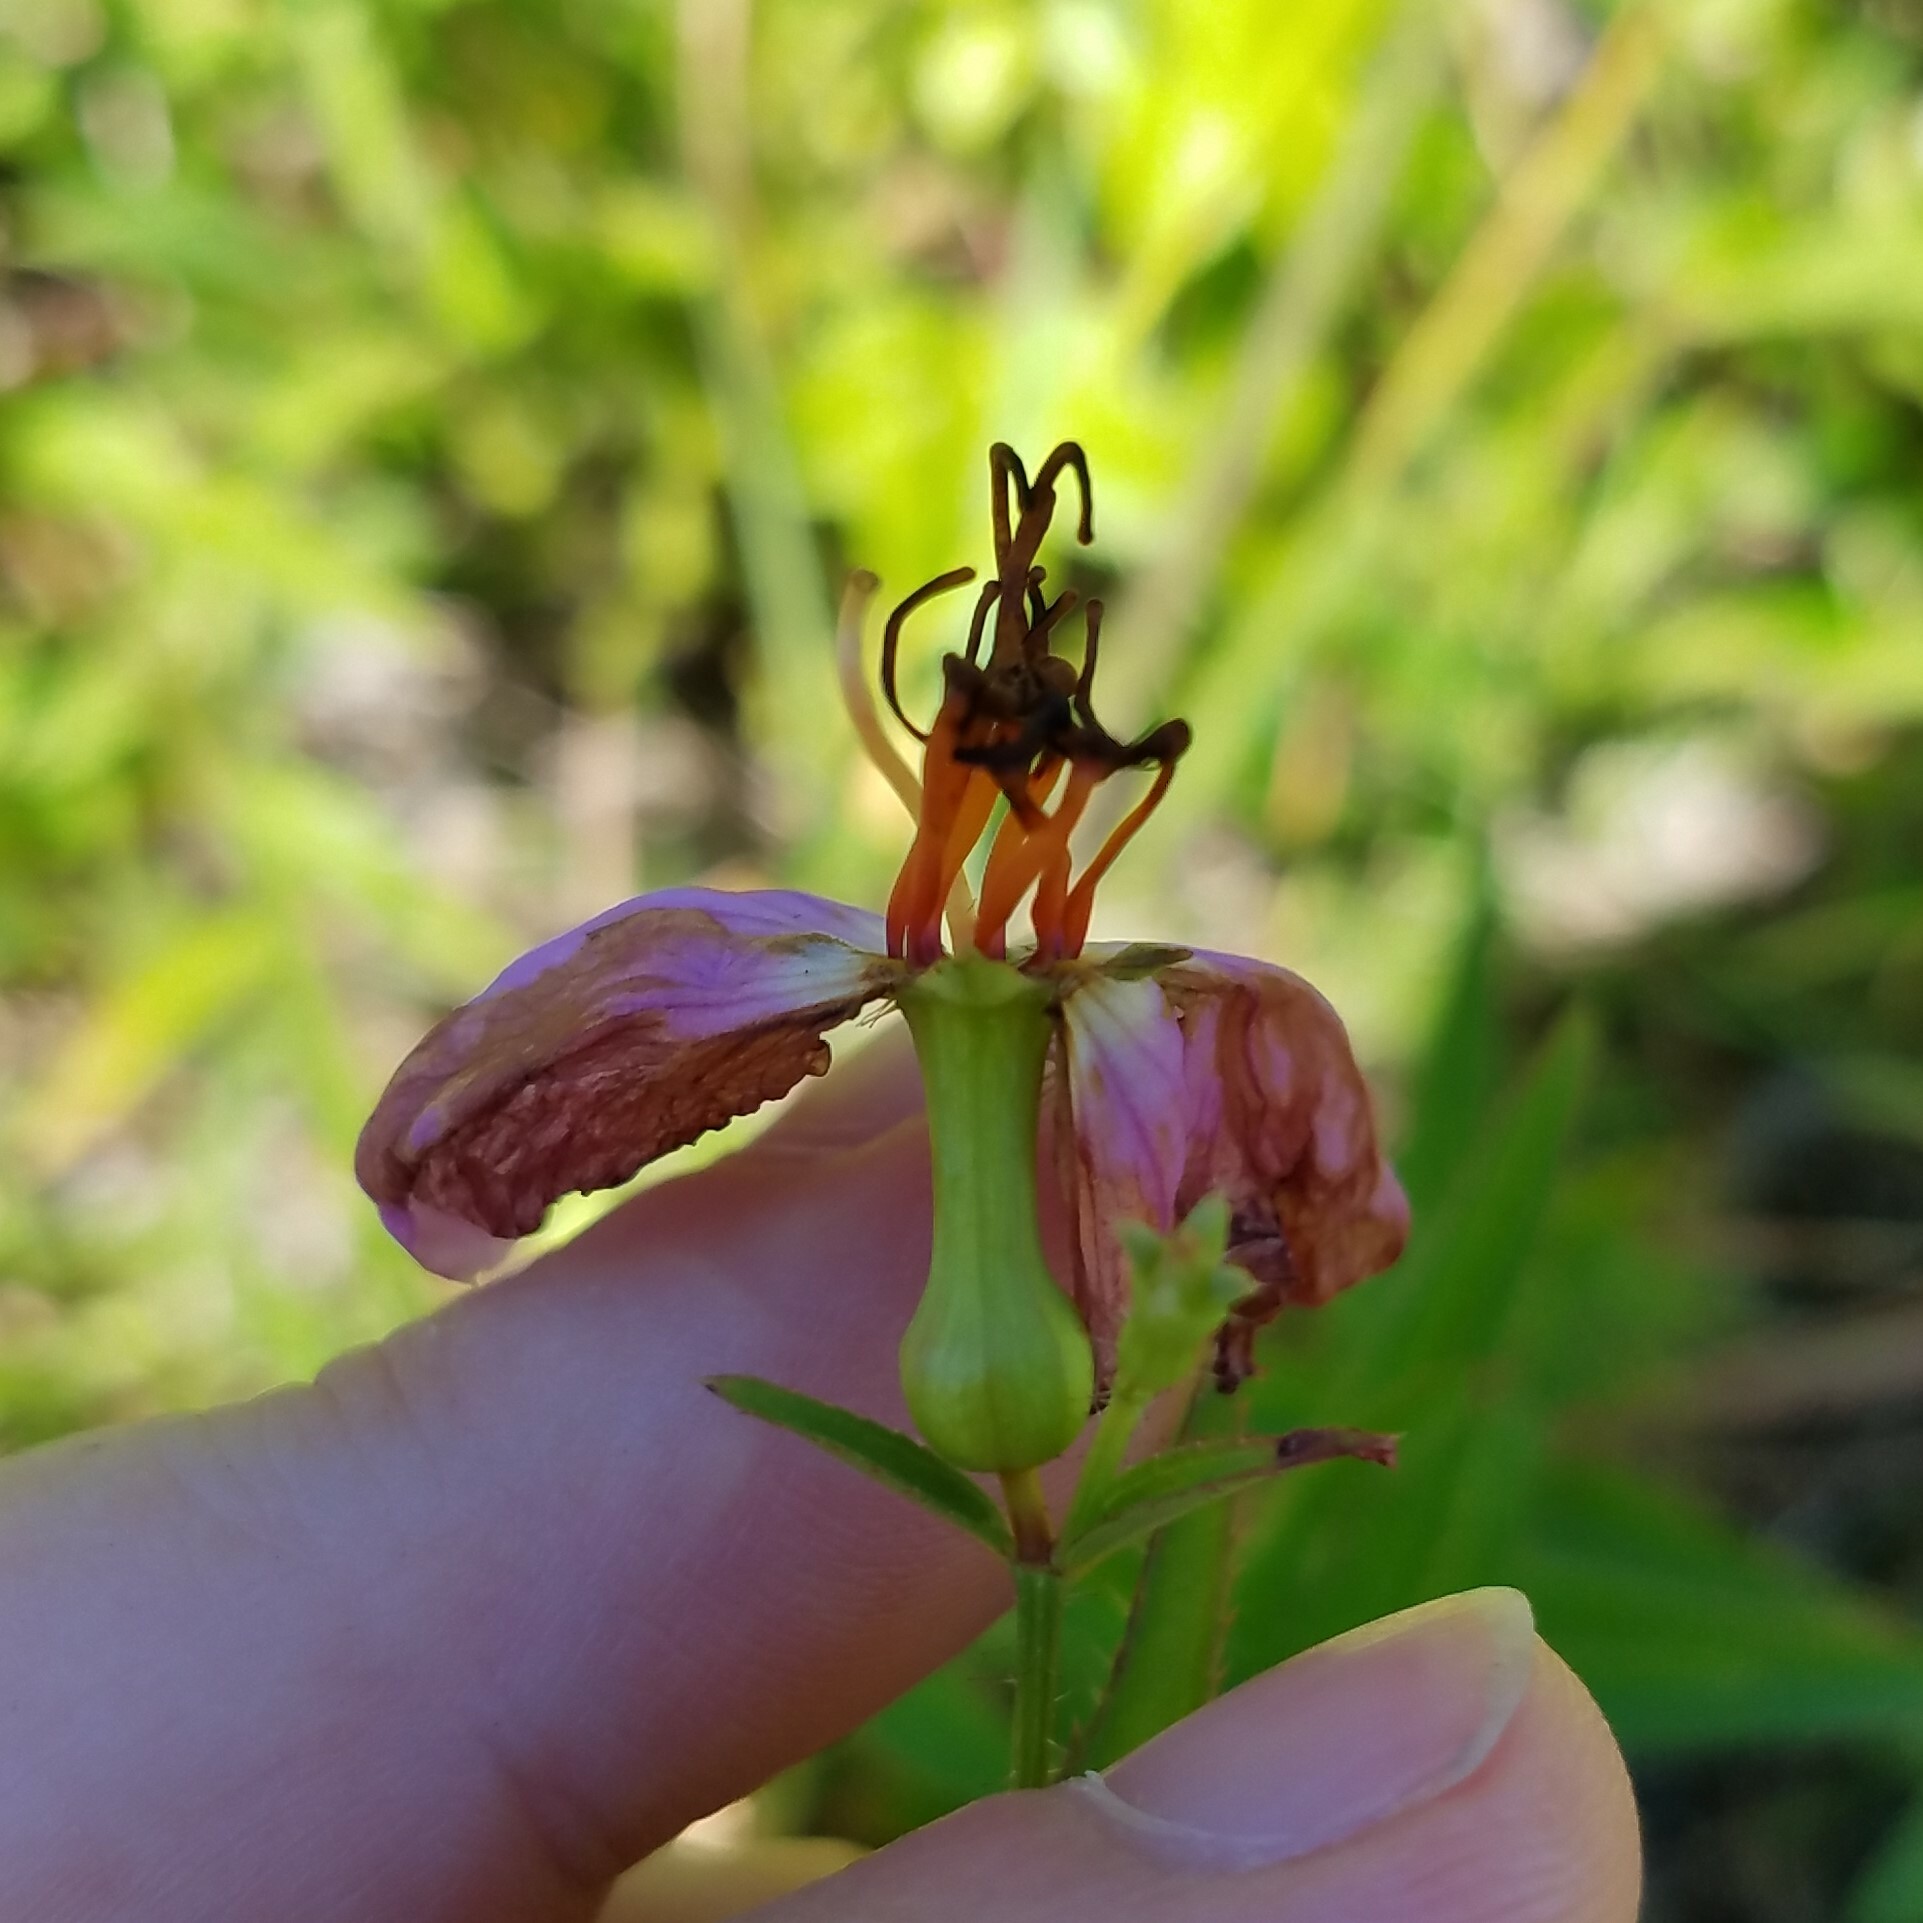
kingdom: Plantae
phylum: Tracheophyta
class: Magnoliopsida
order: Myrtales
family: Melastomataceae
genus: Rhexia
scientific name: Rhexia mariana
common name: Dull meadow-pitcher
